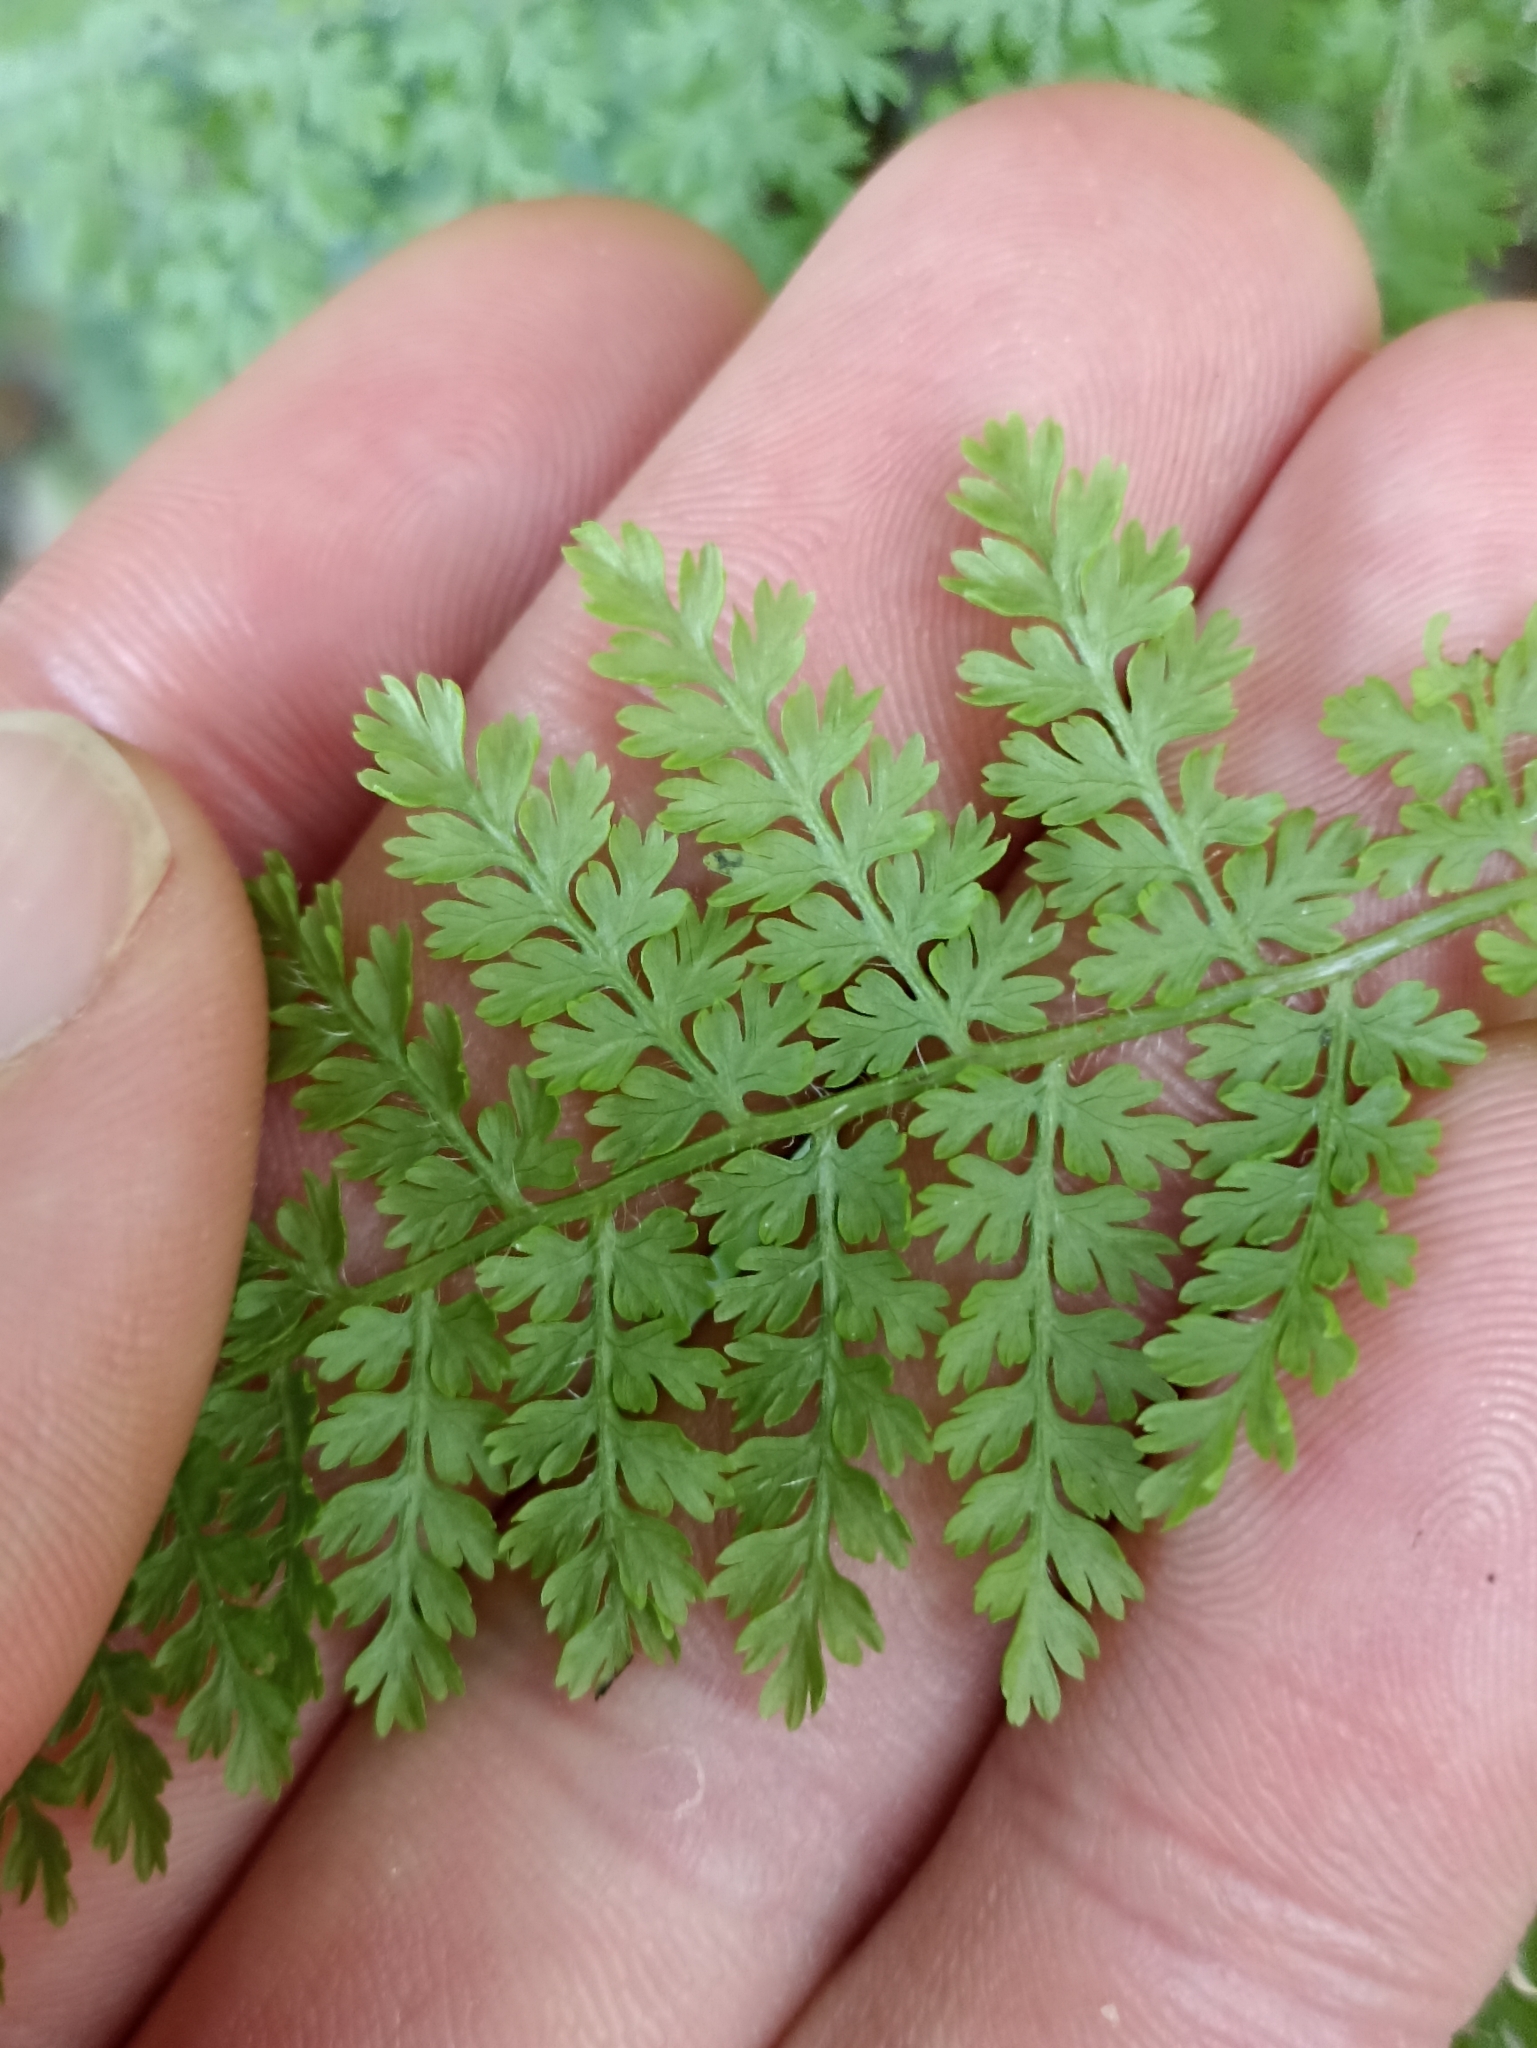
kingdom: Plantae
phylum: Tracheophyta
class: Polypodiopsida
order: Polypodiales
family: Dennstaedtiaceae
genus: Hypolepis
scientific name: Hypolepis millefolium
